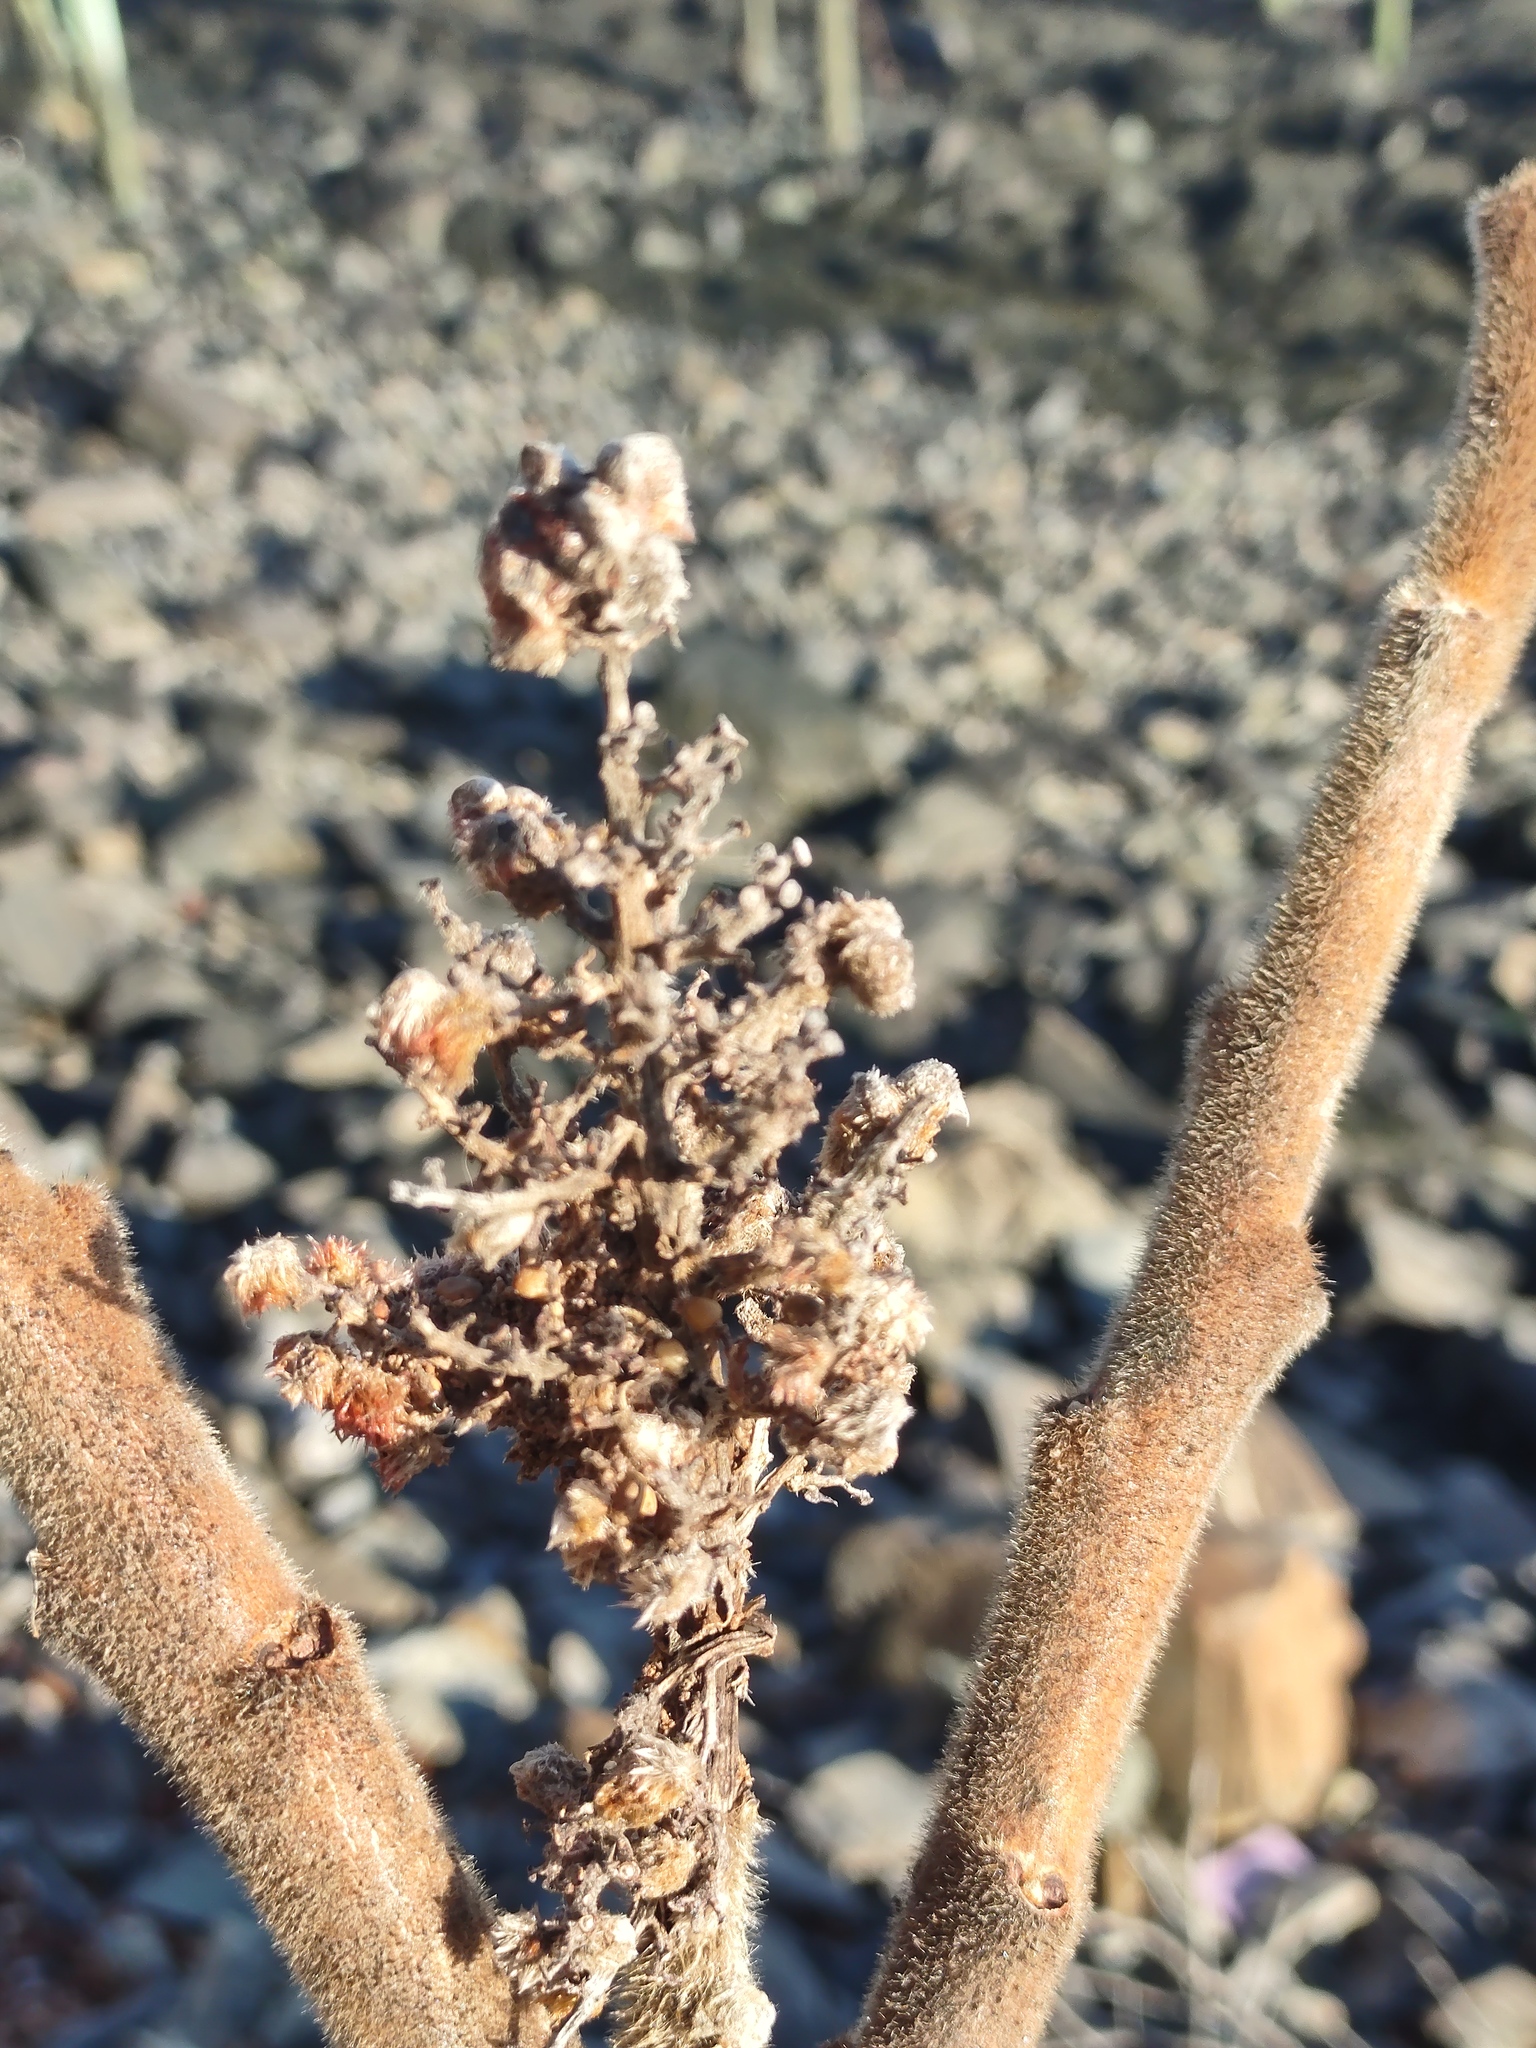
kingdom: Plantae
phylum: Tracheophyta
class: Magnoliopsida
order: Sapindales
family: Anacardiaceae
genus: Rhus
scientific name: Rhus typhina
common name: Staghorn sumac
